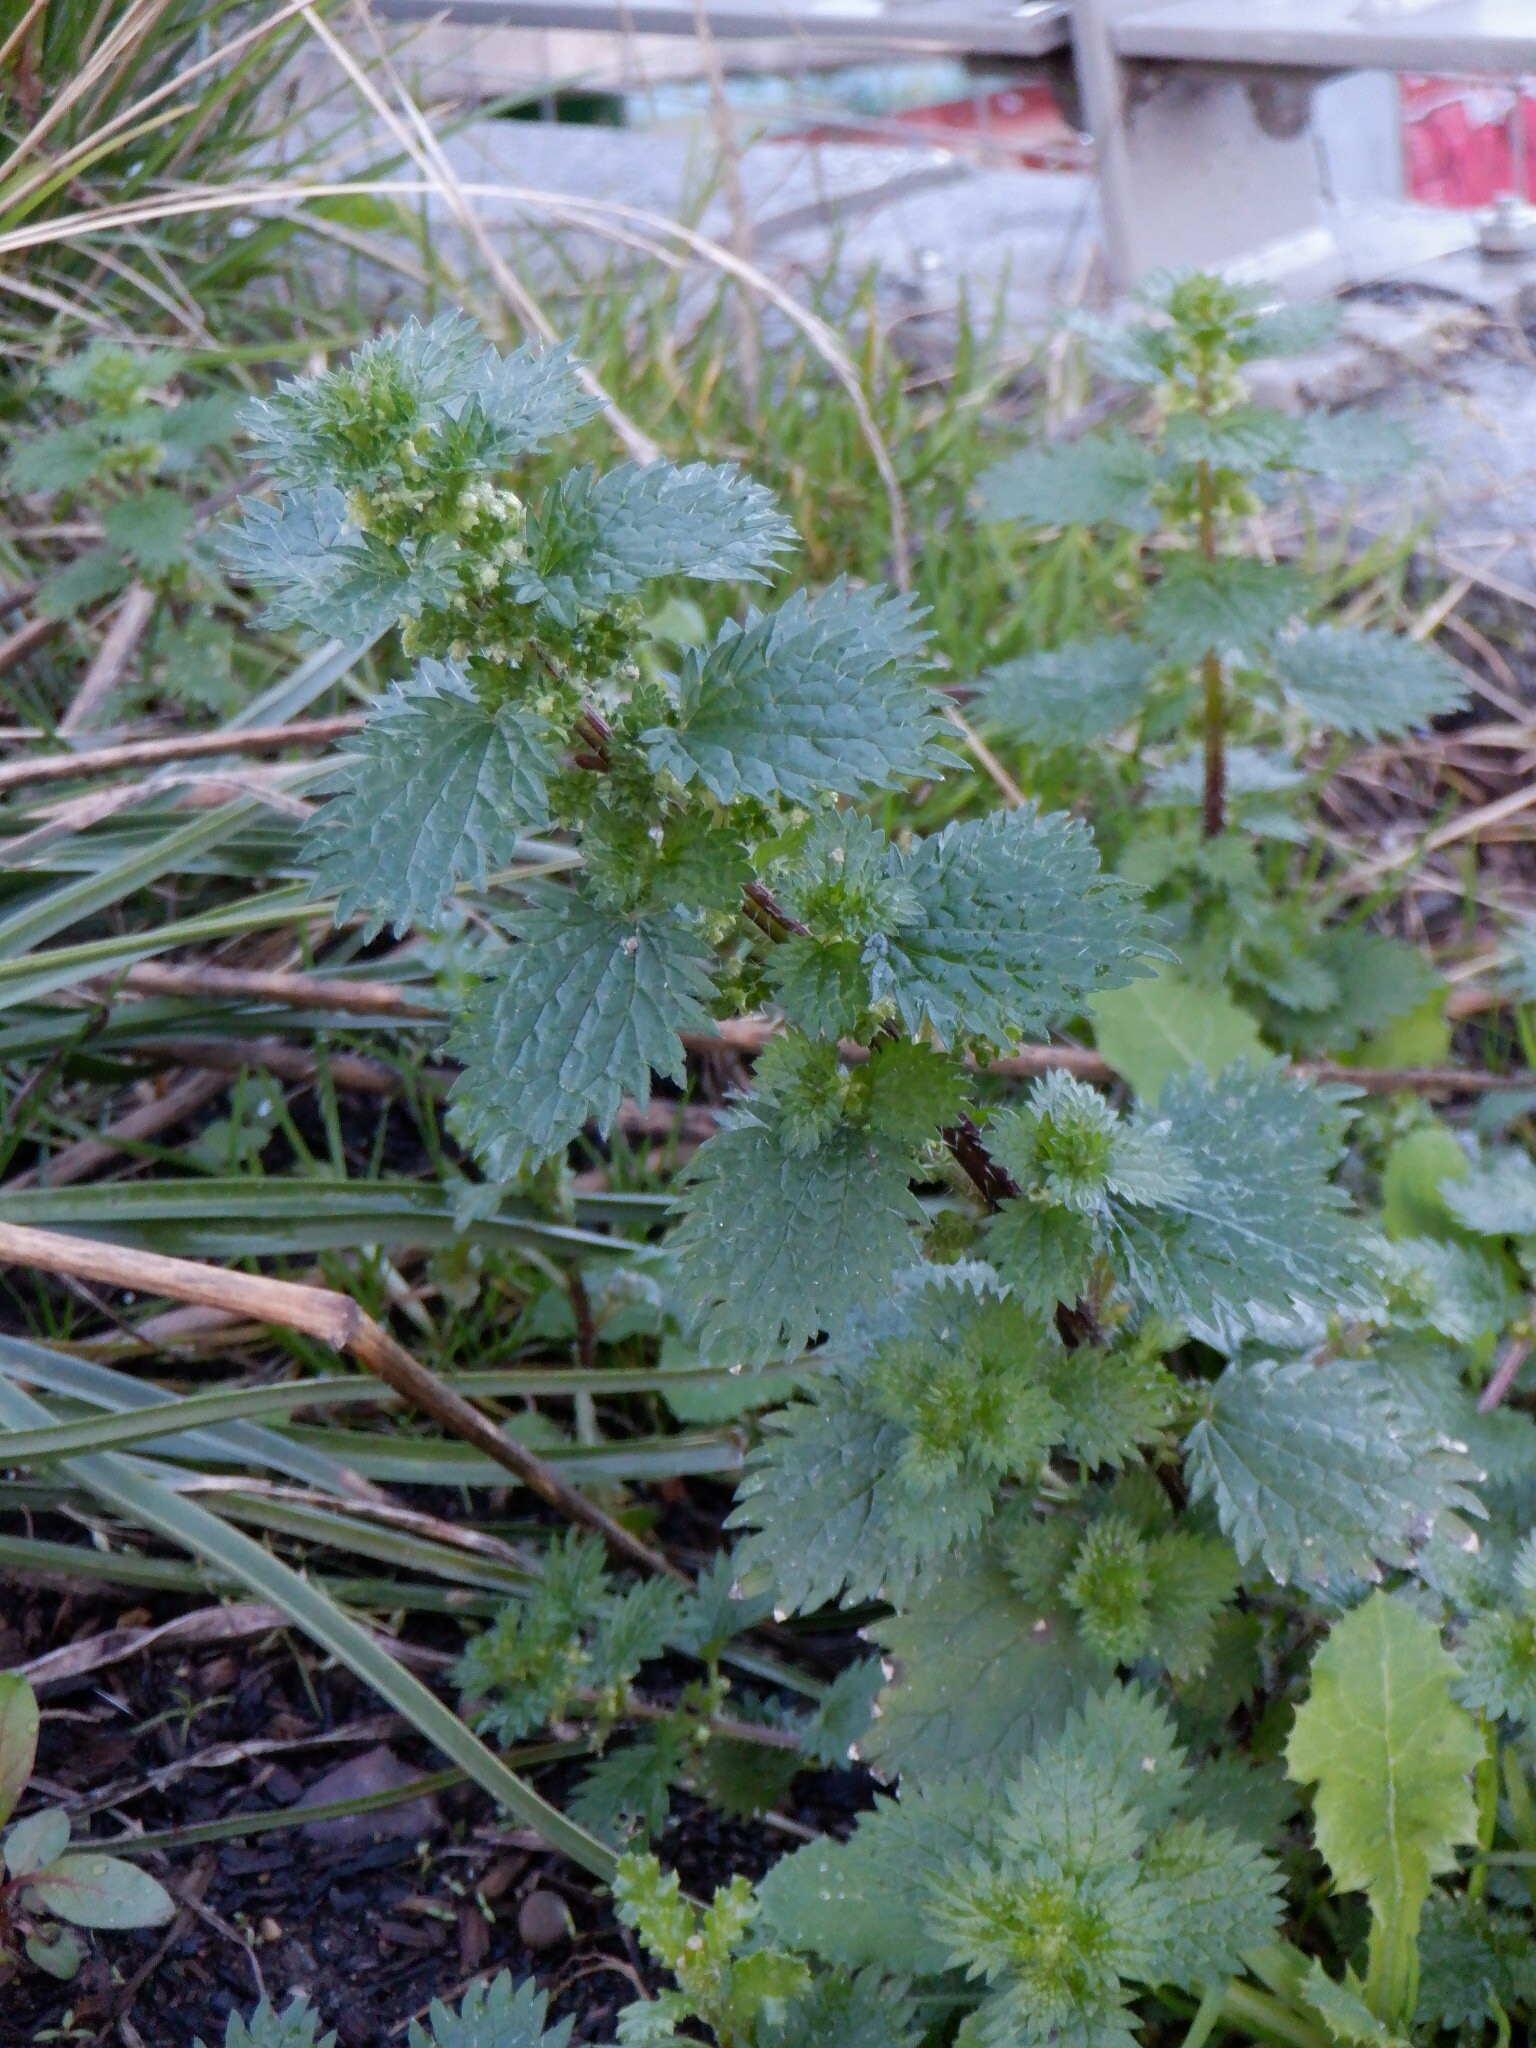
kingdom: Plantae
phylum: Tracheophyta
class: Magnoliopsida
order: Rosales
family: Urticaceae
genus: Urtica
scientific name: Urtica urens
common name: Dwarf nettle
